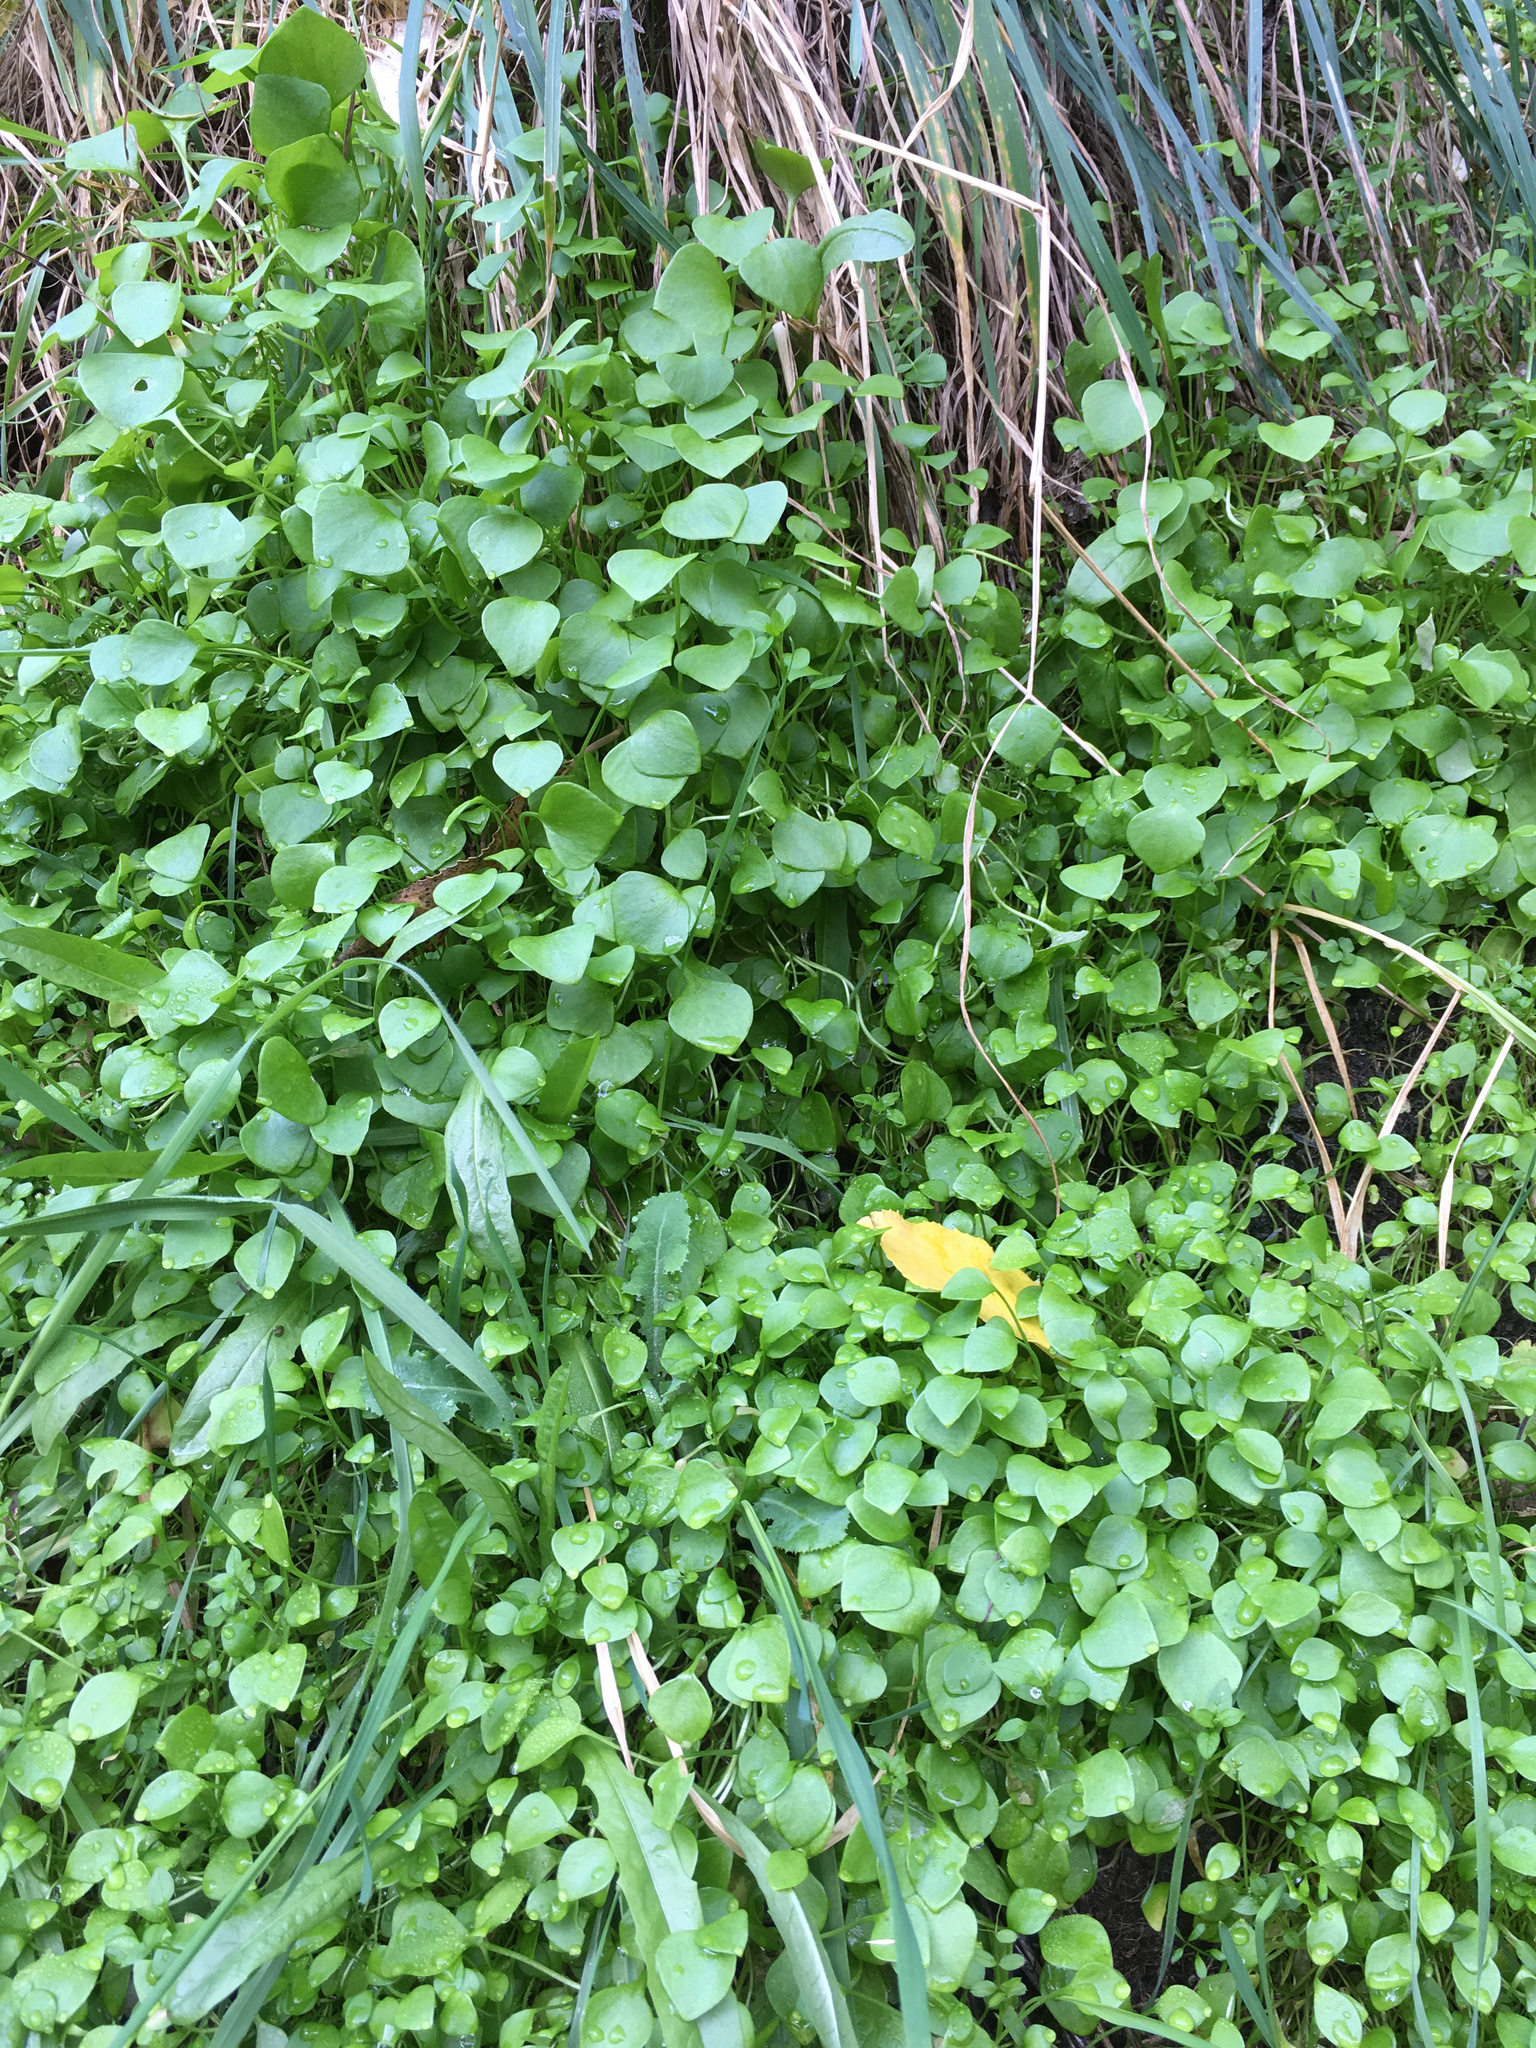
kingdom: Plantae
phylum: Tracheophyta
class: Magnoliopsida
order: Caryophyllales
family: Montiaceae
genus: Claytonia
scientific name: Claytonia perfoliata
